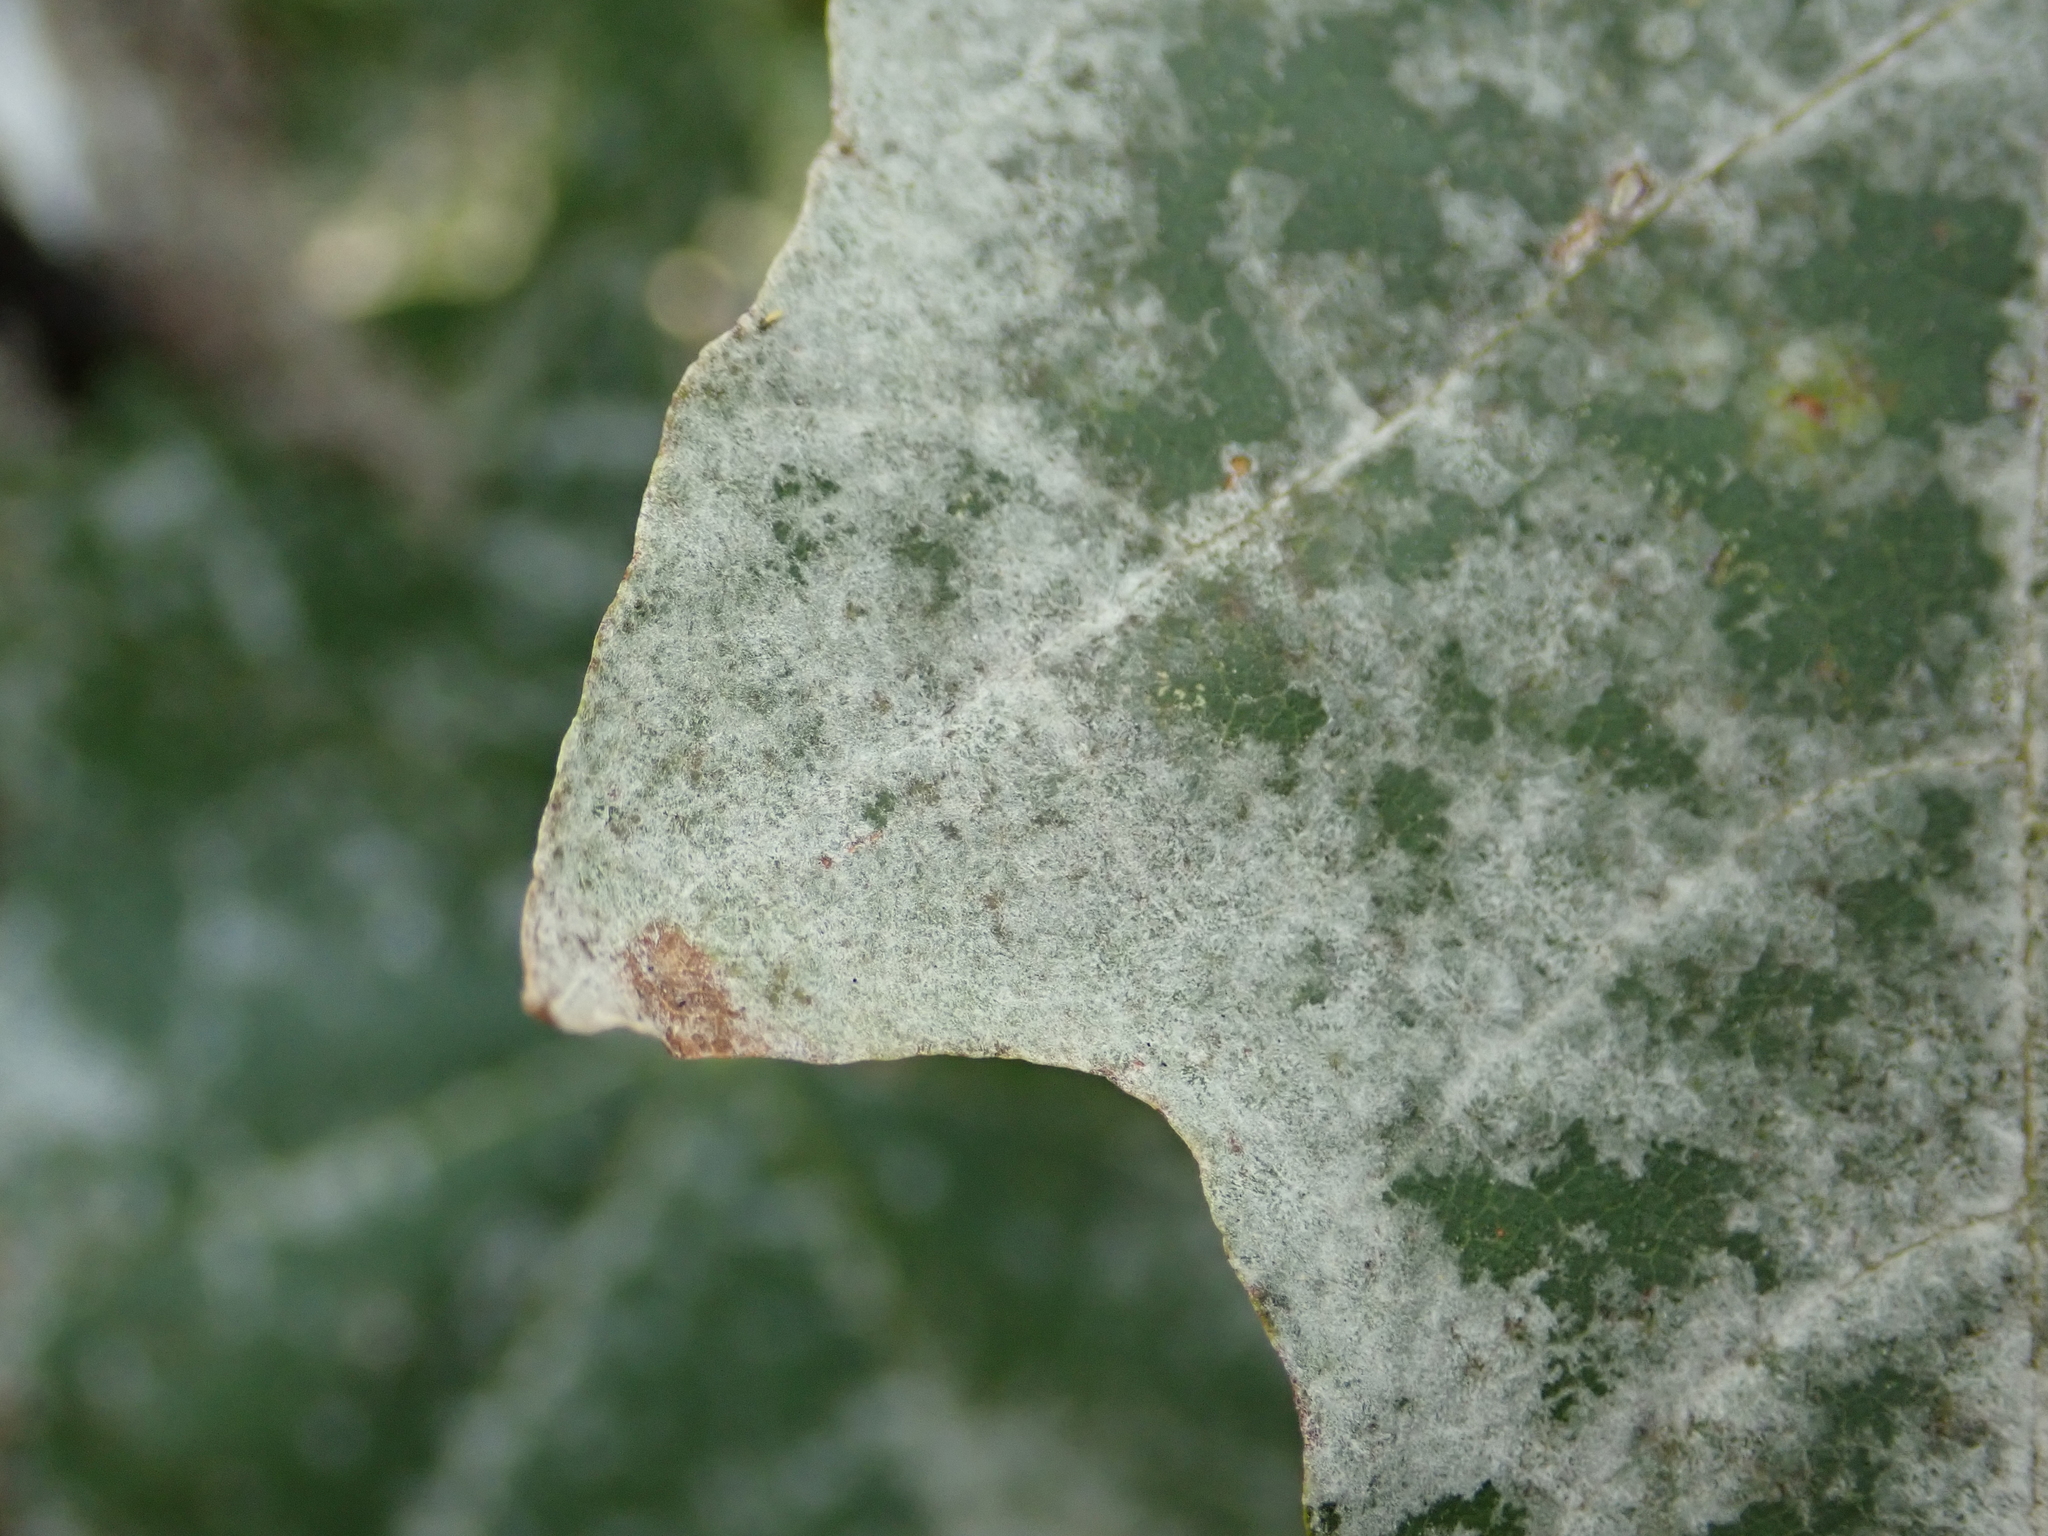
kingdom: Fungi
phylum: Ascomycota
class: Leotiomycetes
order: Helotiales
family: Erysiphaceae
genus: Sawadaea
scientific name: Sawadaea tulasnei
